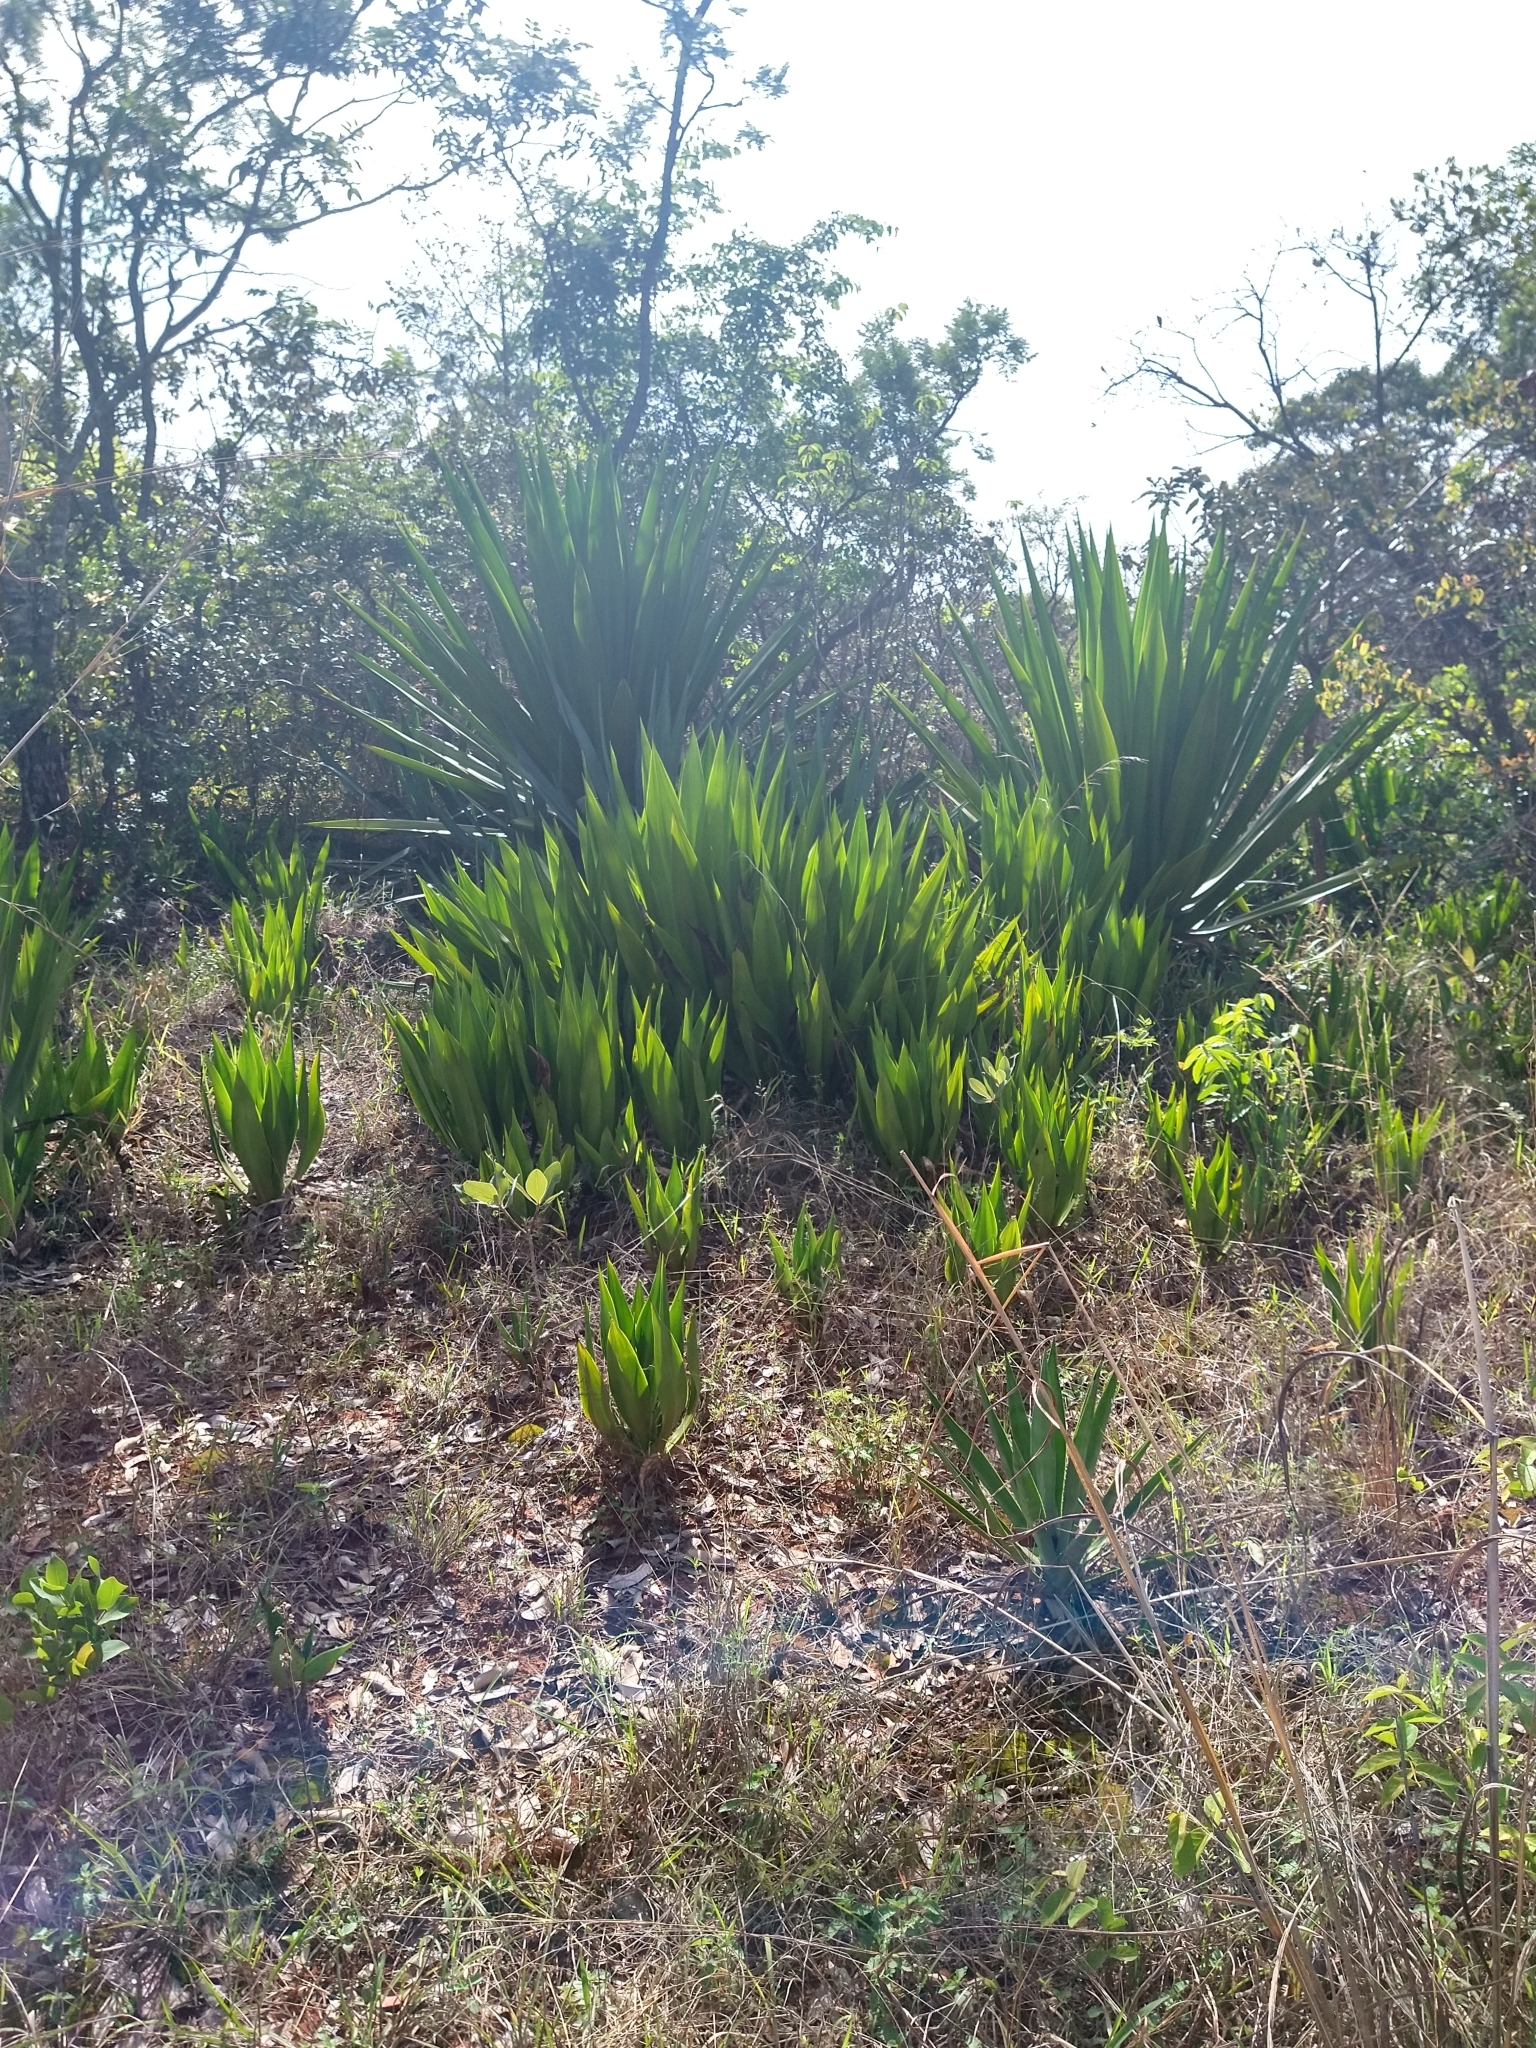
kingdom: Plantae
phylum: Tracheophyta
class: Liliopsida
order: Asparagales
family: Asparagaceae
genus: Furcraea
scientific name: Furcraea foetida
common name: Mauritius hemp
